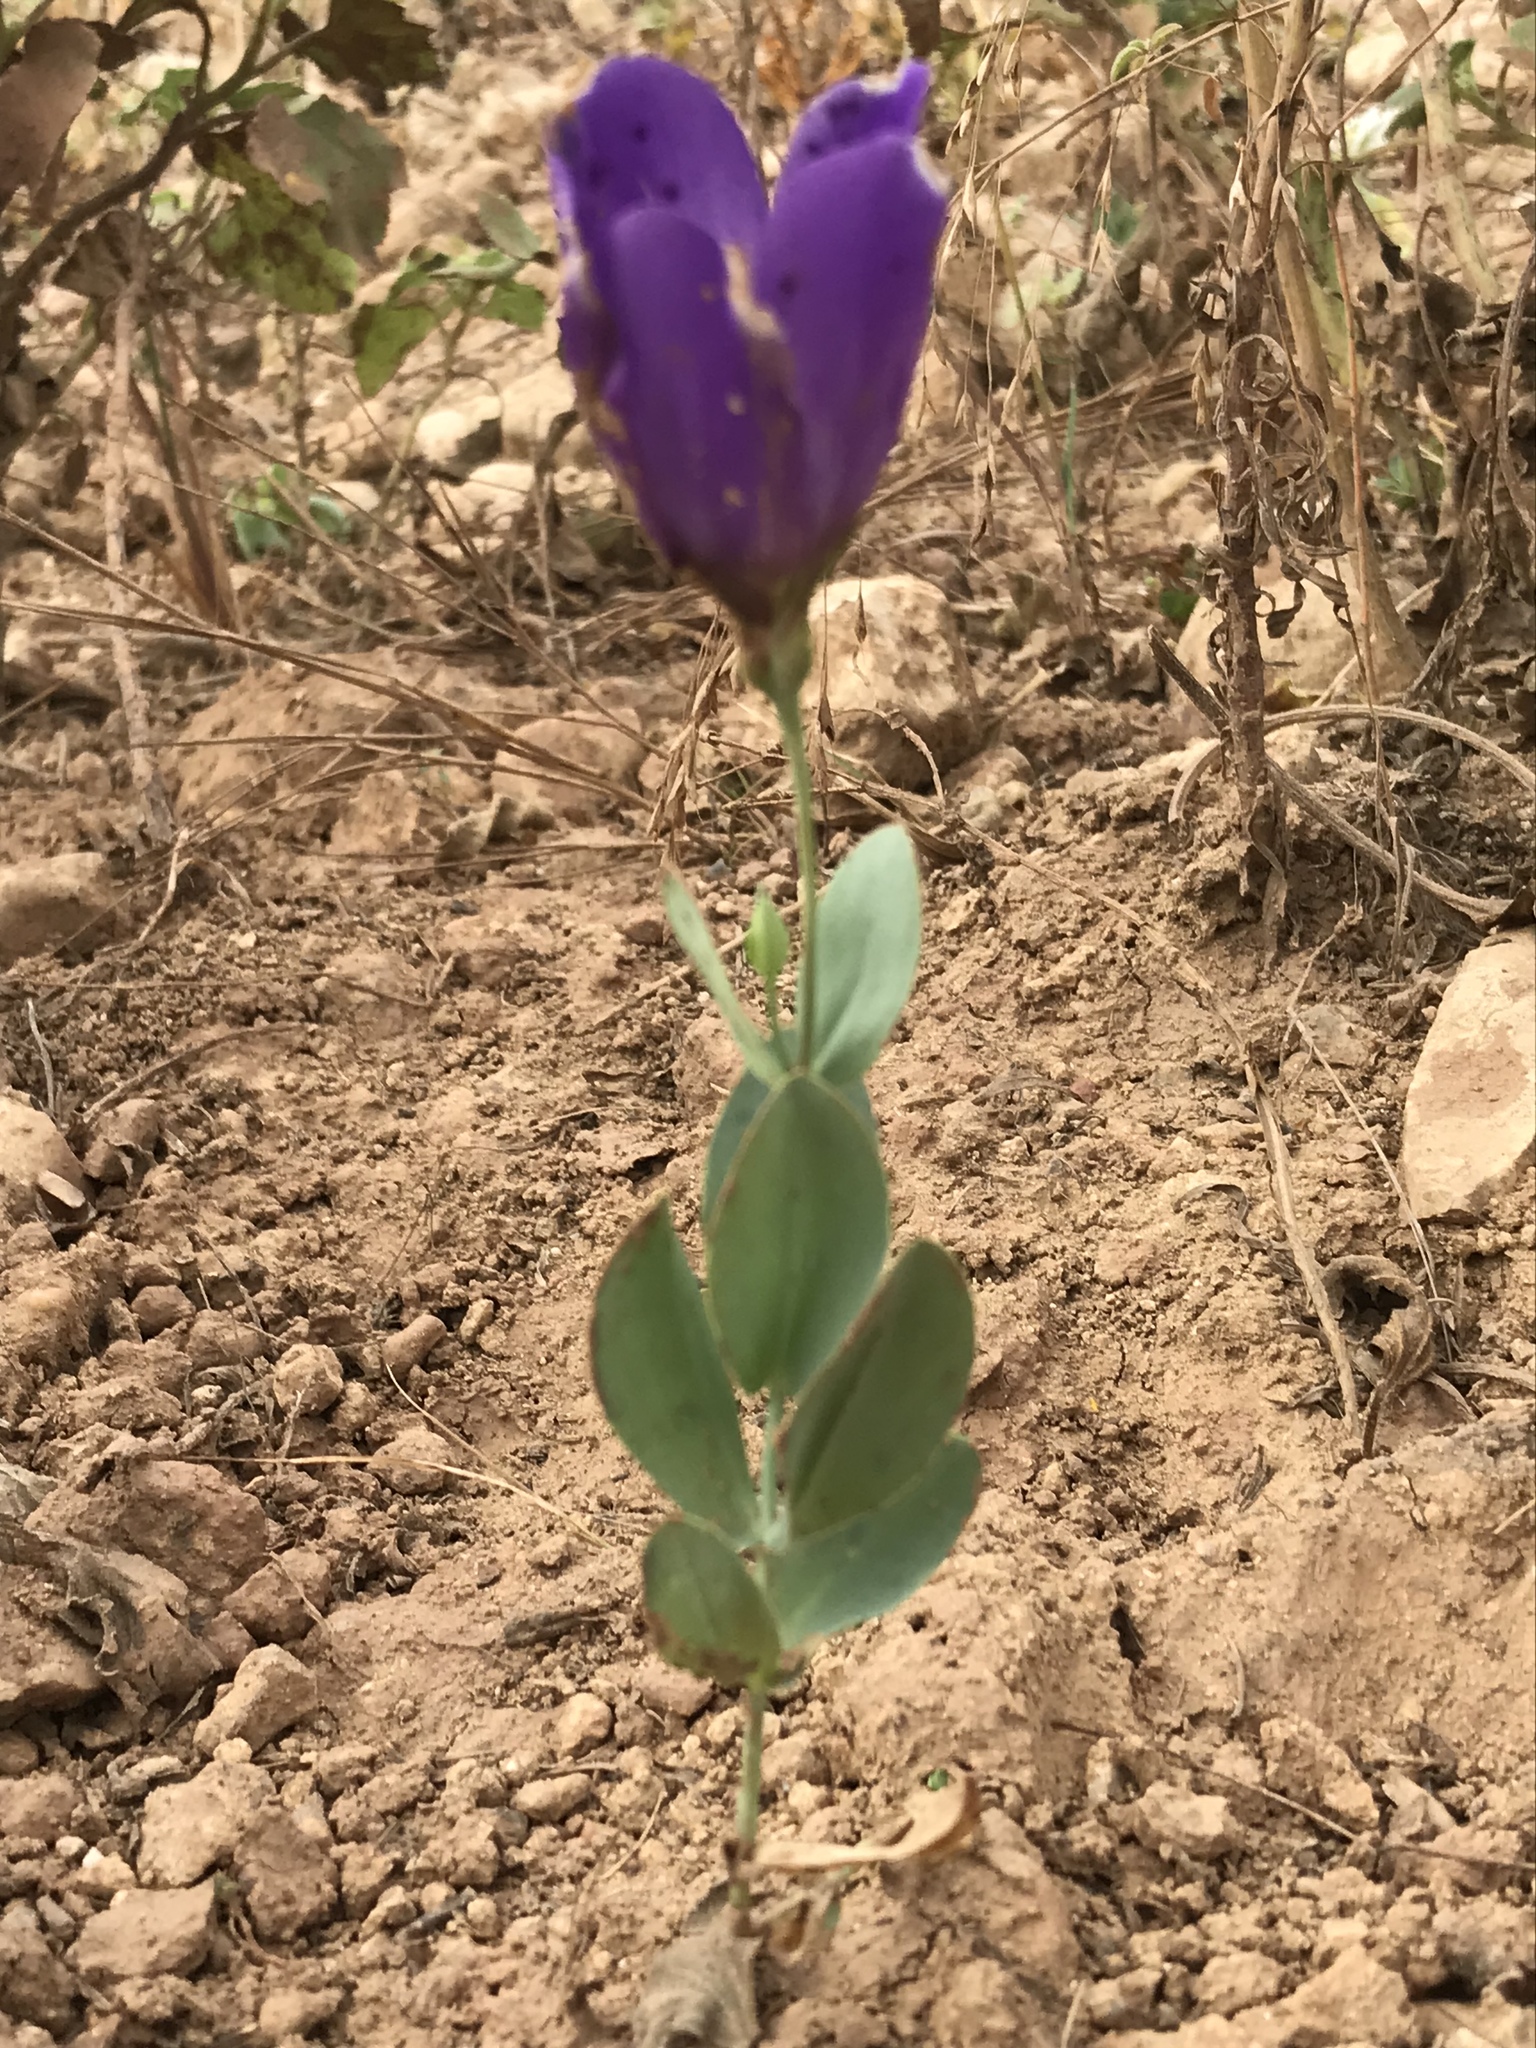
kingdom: Plantae
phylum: Tracheophyta
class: Magnoliopsida
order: Gentianales
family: Gentianaceae
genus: Eustoma
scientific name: Eustoma russellianum
